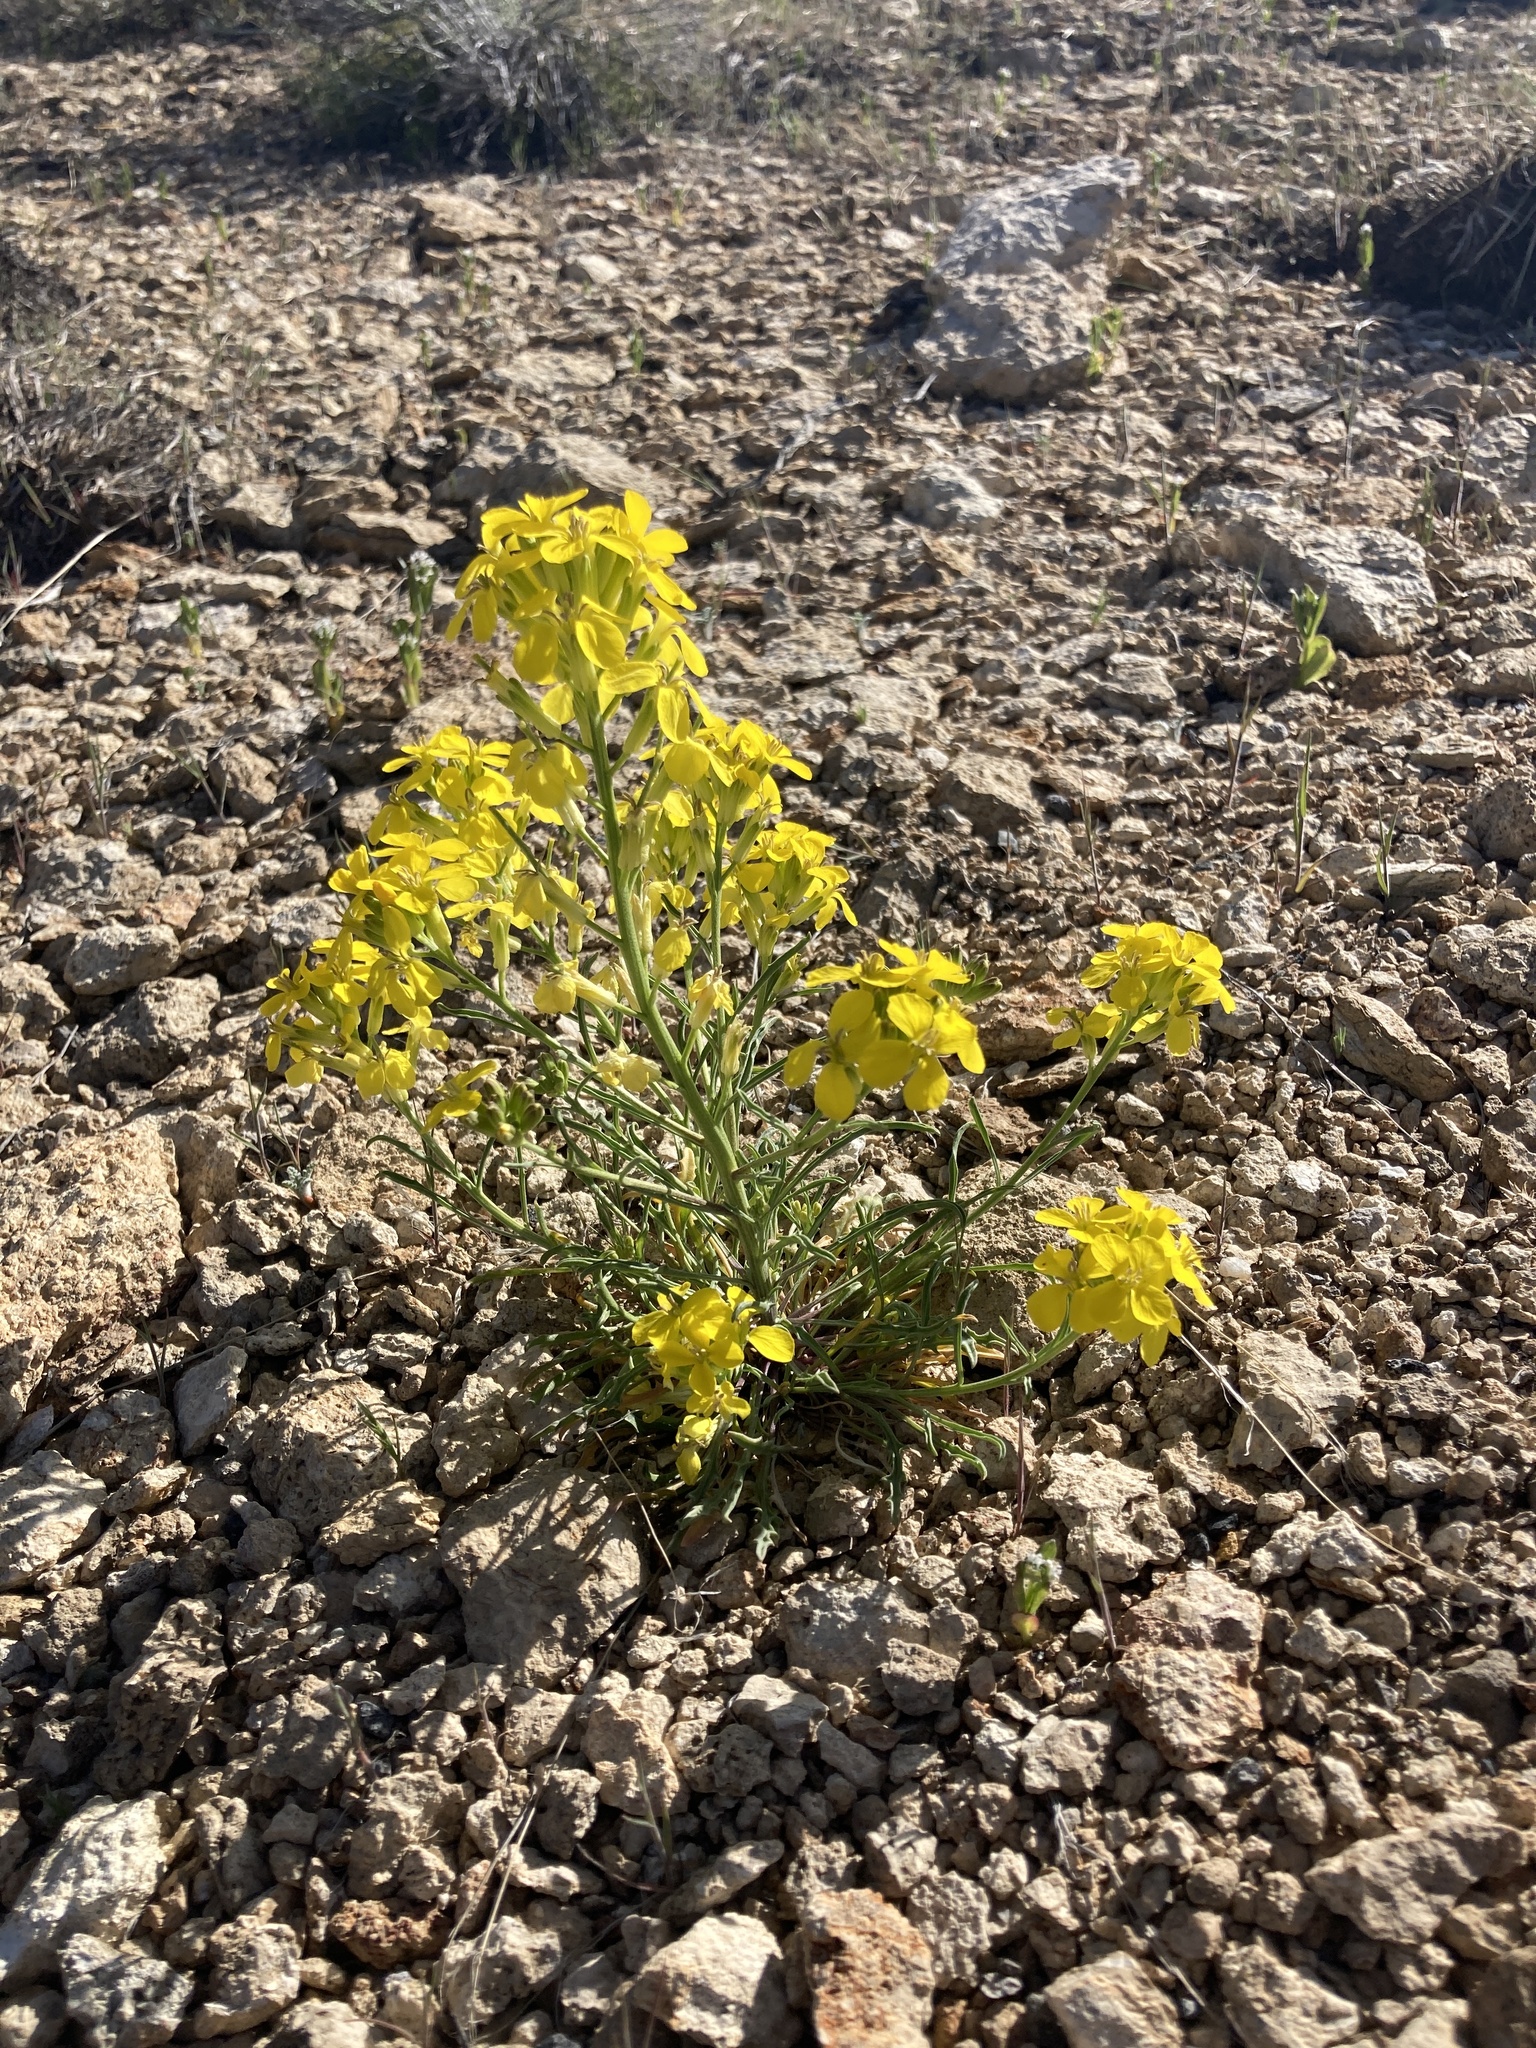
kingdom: Plantae
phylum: Tracheophyta
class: Magnoliopsida
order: Brassicales
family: Brassicaceae
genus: Erysimum
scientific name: Erysimum capitatum
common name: Western wallflower
